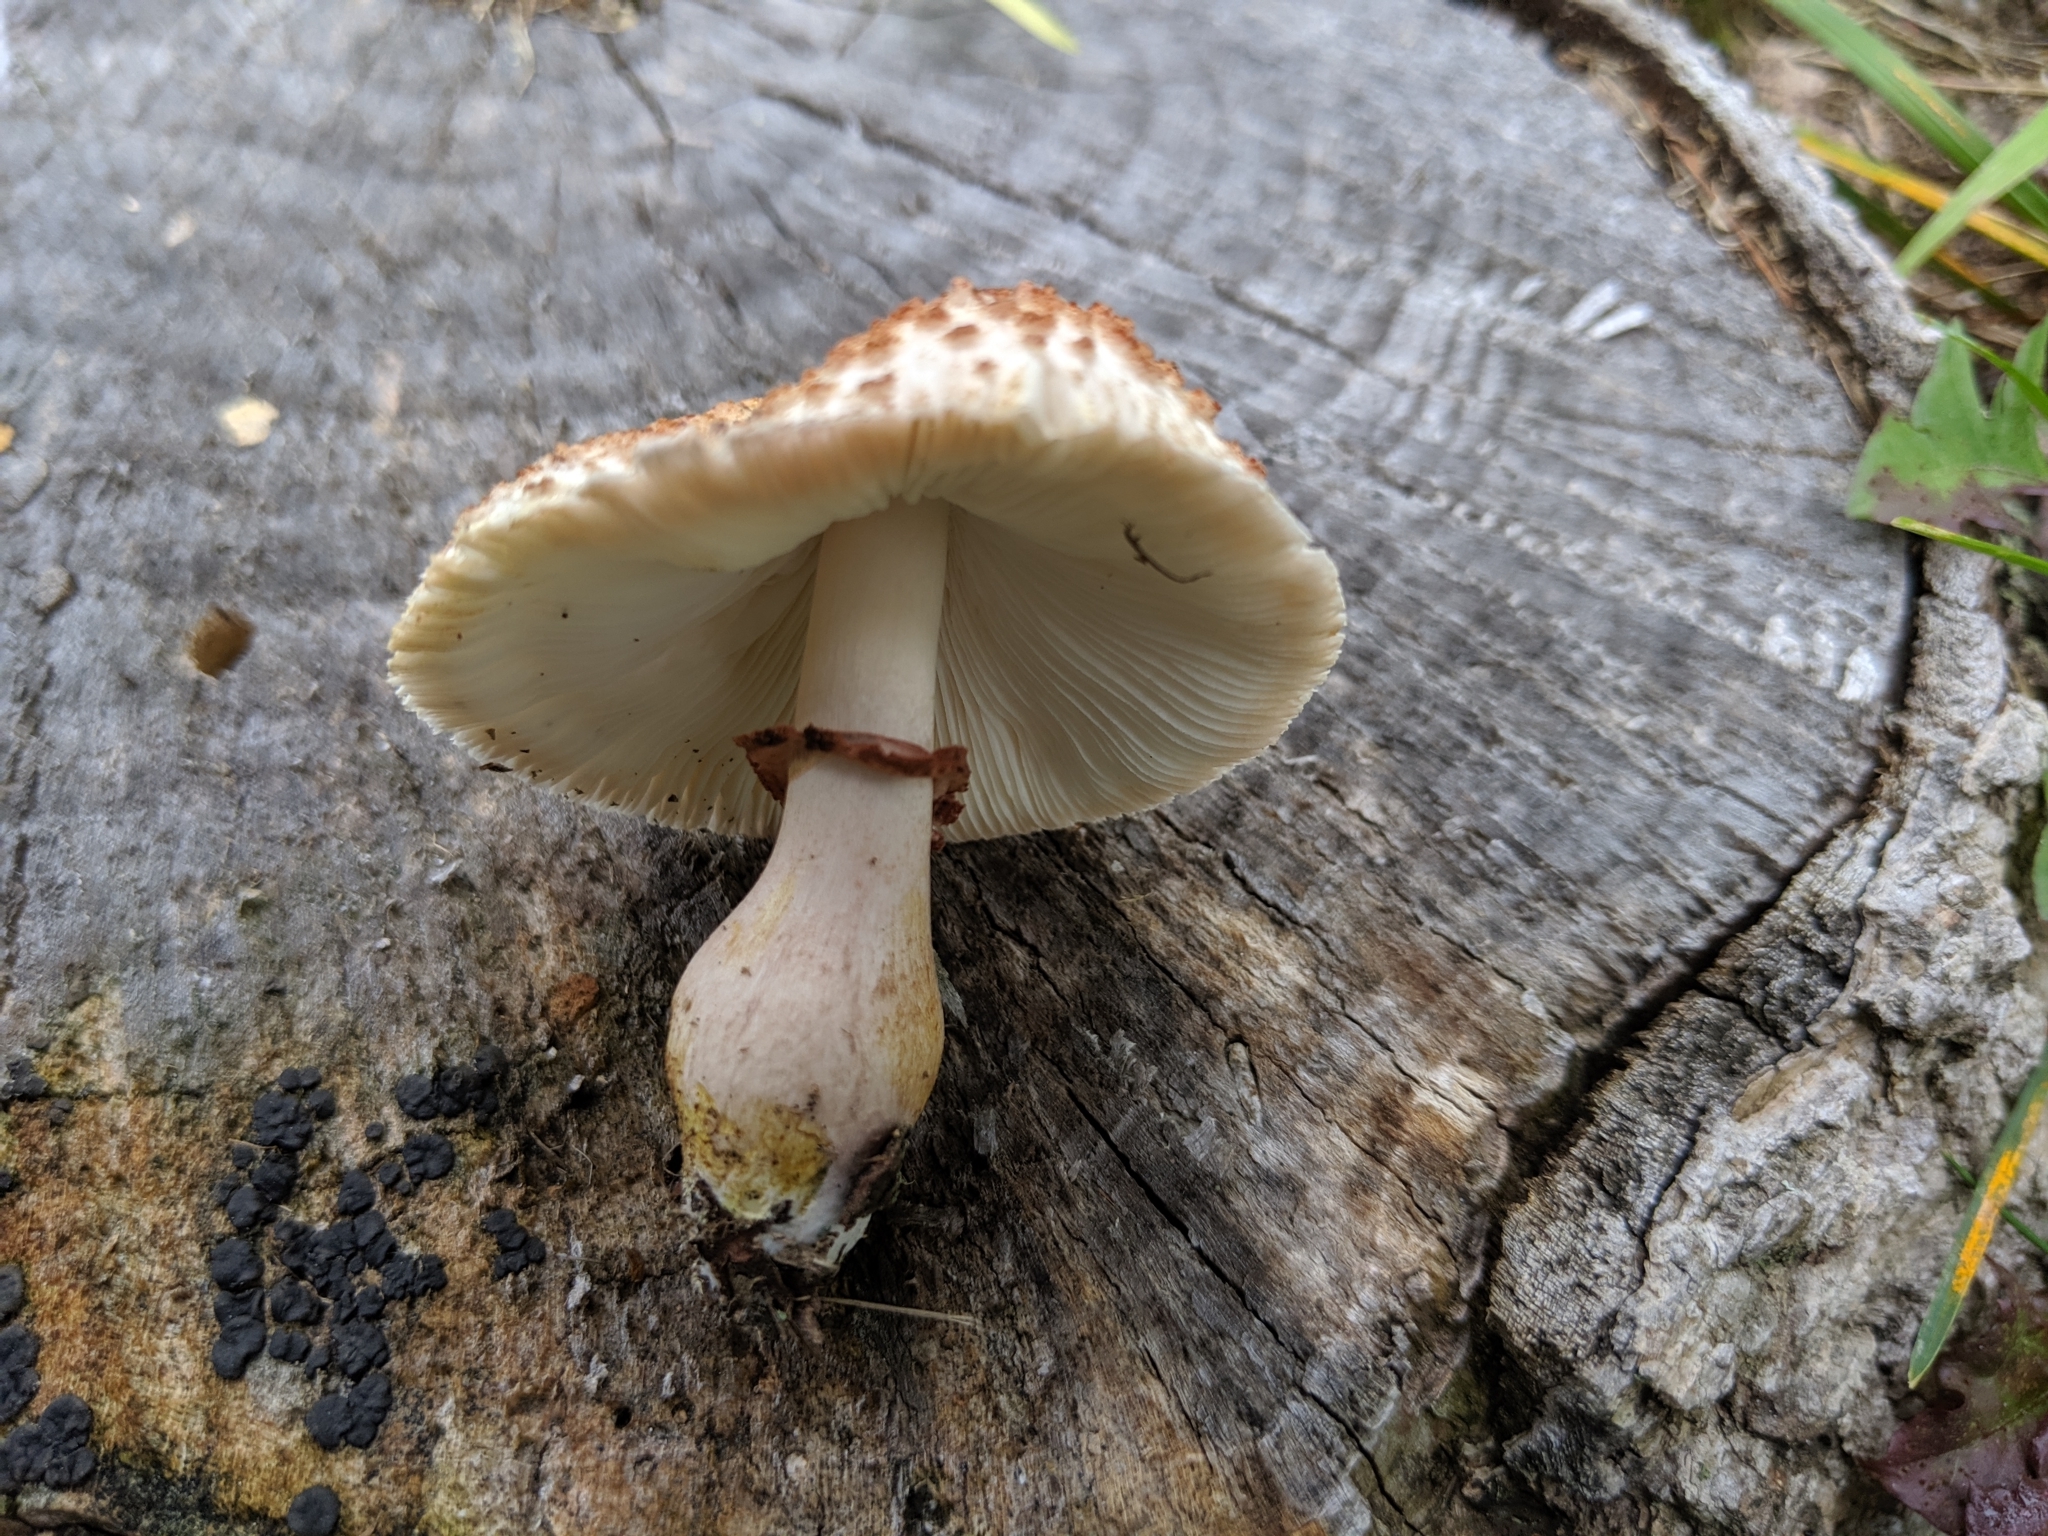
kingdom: Fungi
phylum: Basidiomycota
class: Agaricomycetes
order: Agaricales
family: Agaricaceae
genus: Leucoagaricus
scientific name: Leucoagaricus americanus
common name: Reddening lepiota
